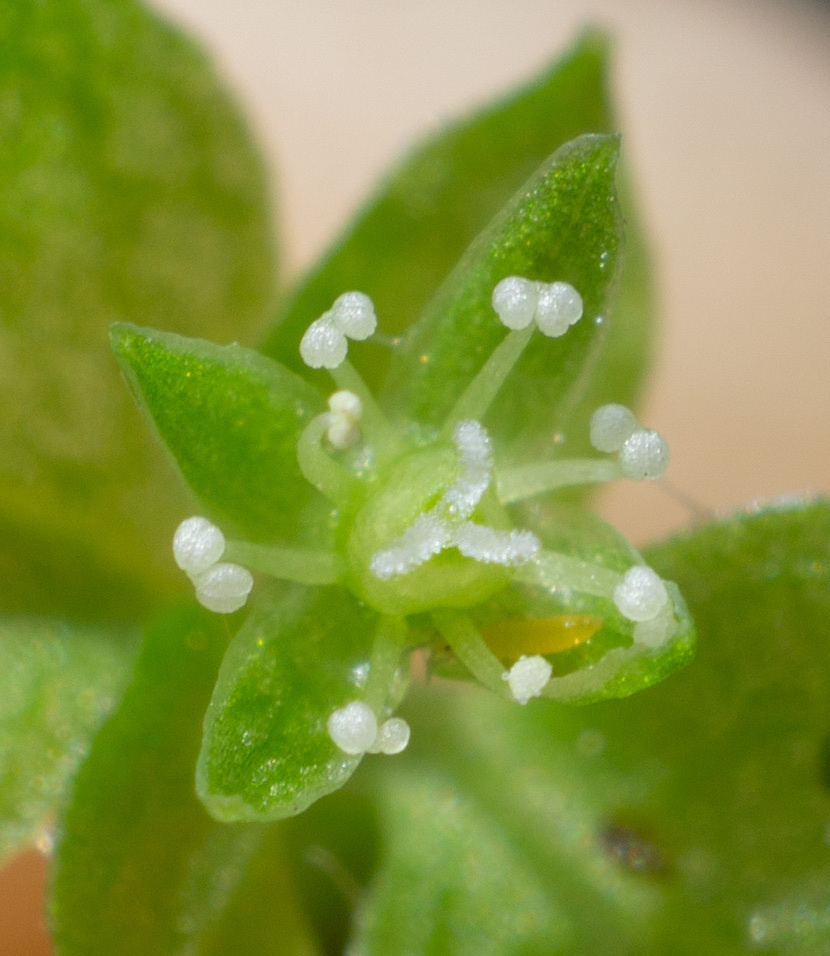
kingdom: Plantae
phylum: Tracheophyta
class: Magnoliopsida
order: Caryophyllales
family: Caryophyllaceae
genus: Stellaria
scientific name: Stellaria obtusa
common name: Rocky mountain chickweed
